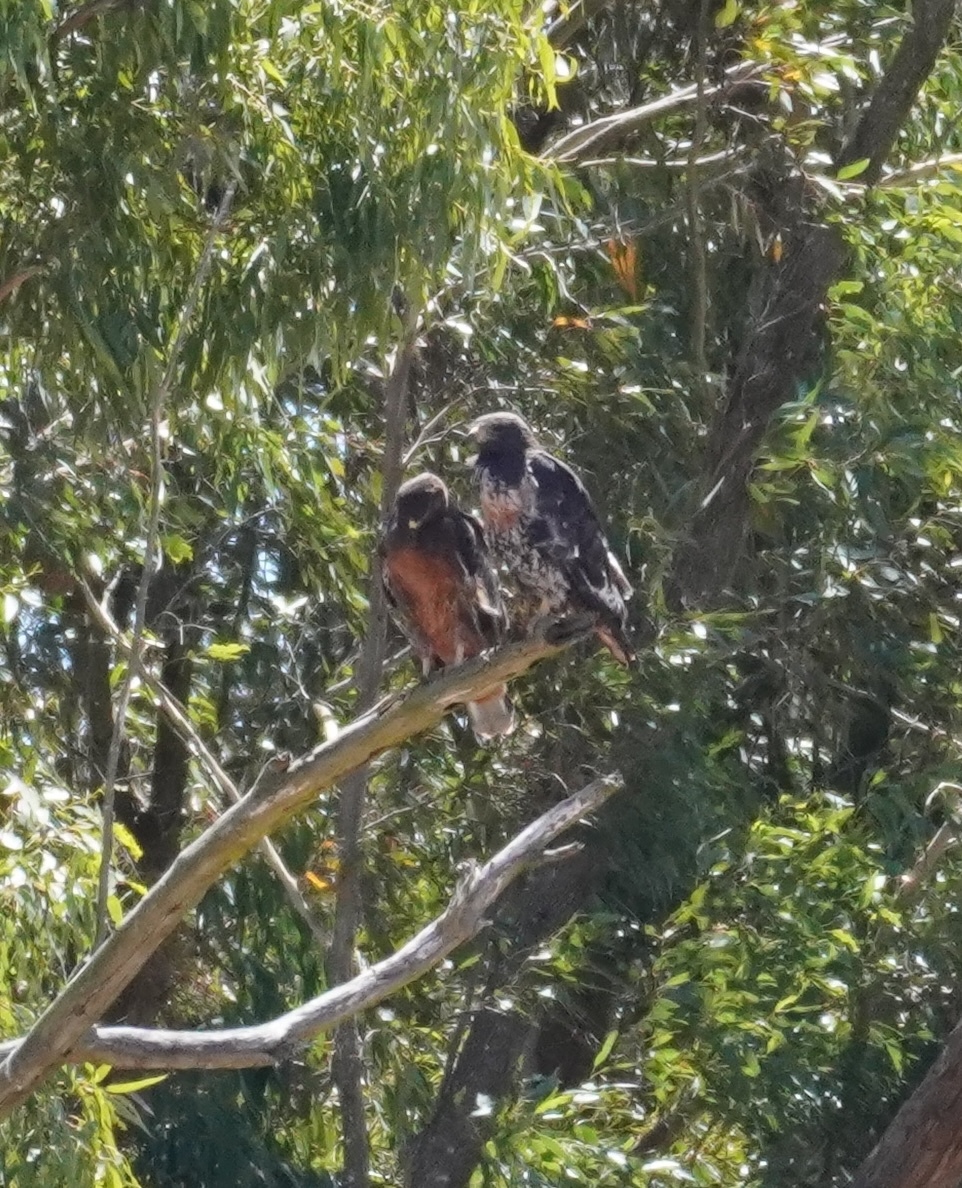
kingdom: Animalia
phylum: Chordata
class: Aves
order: Accipitriformes
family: Accipitridae
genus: Buteo
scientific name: Buteo rufofuscus
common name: Jackal buzzard
